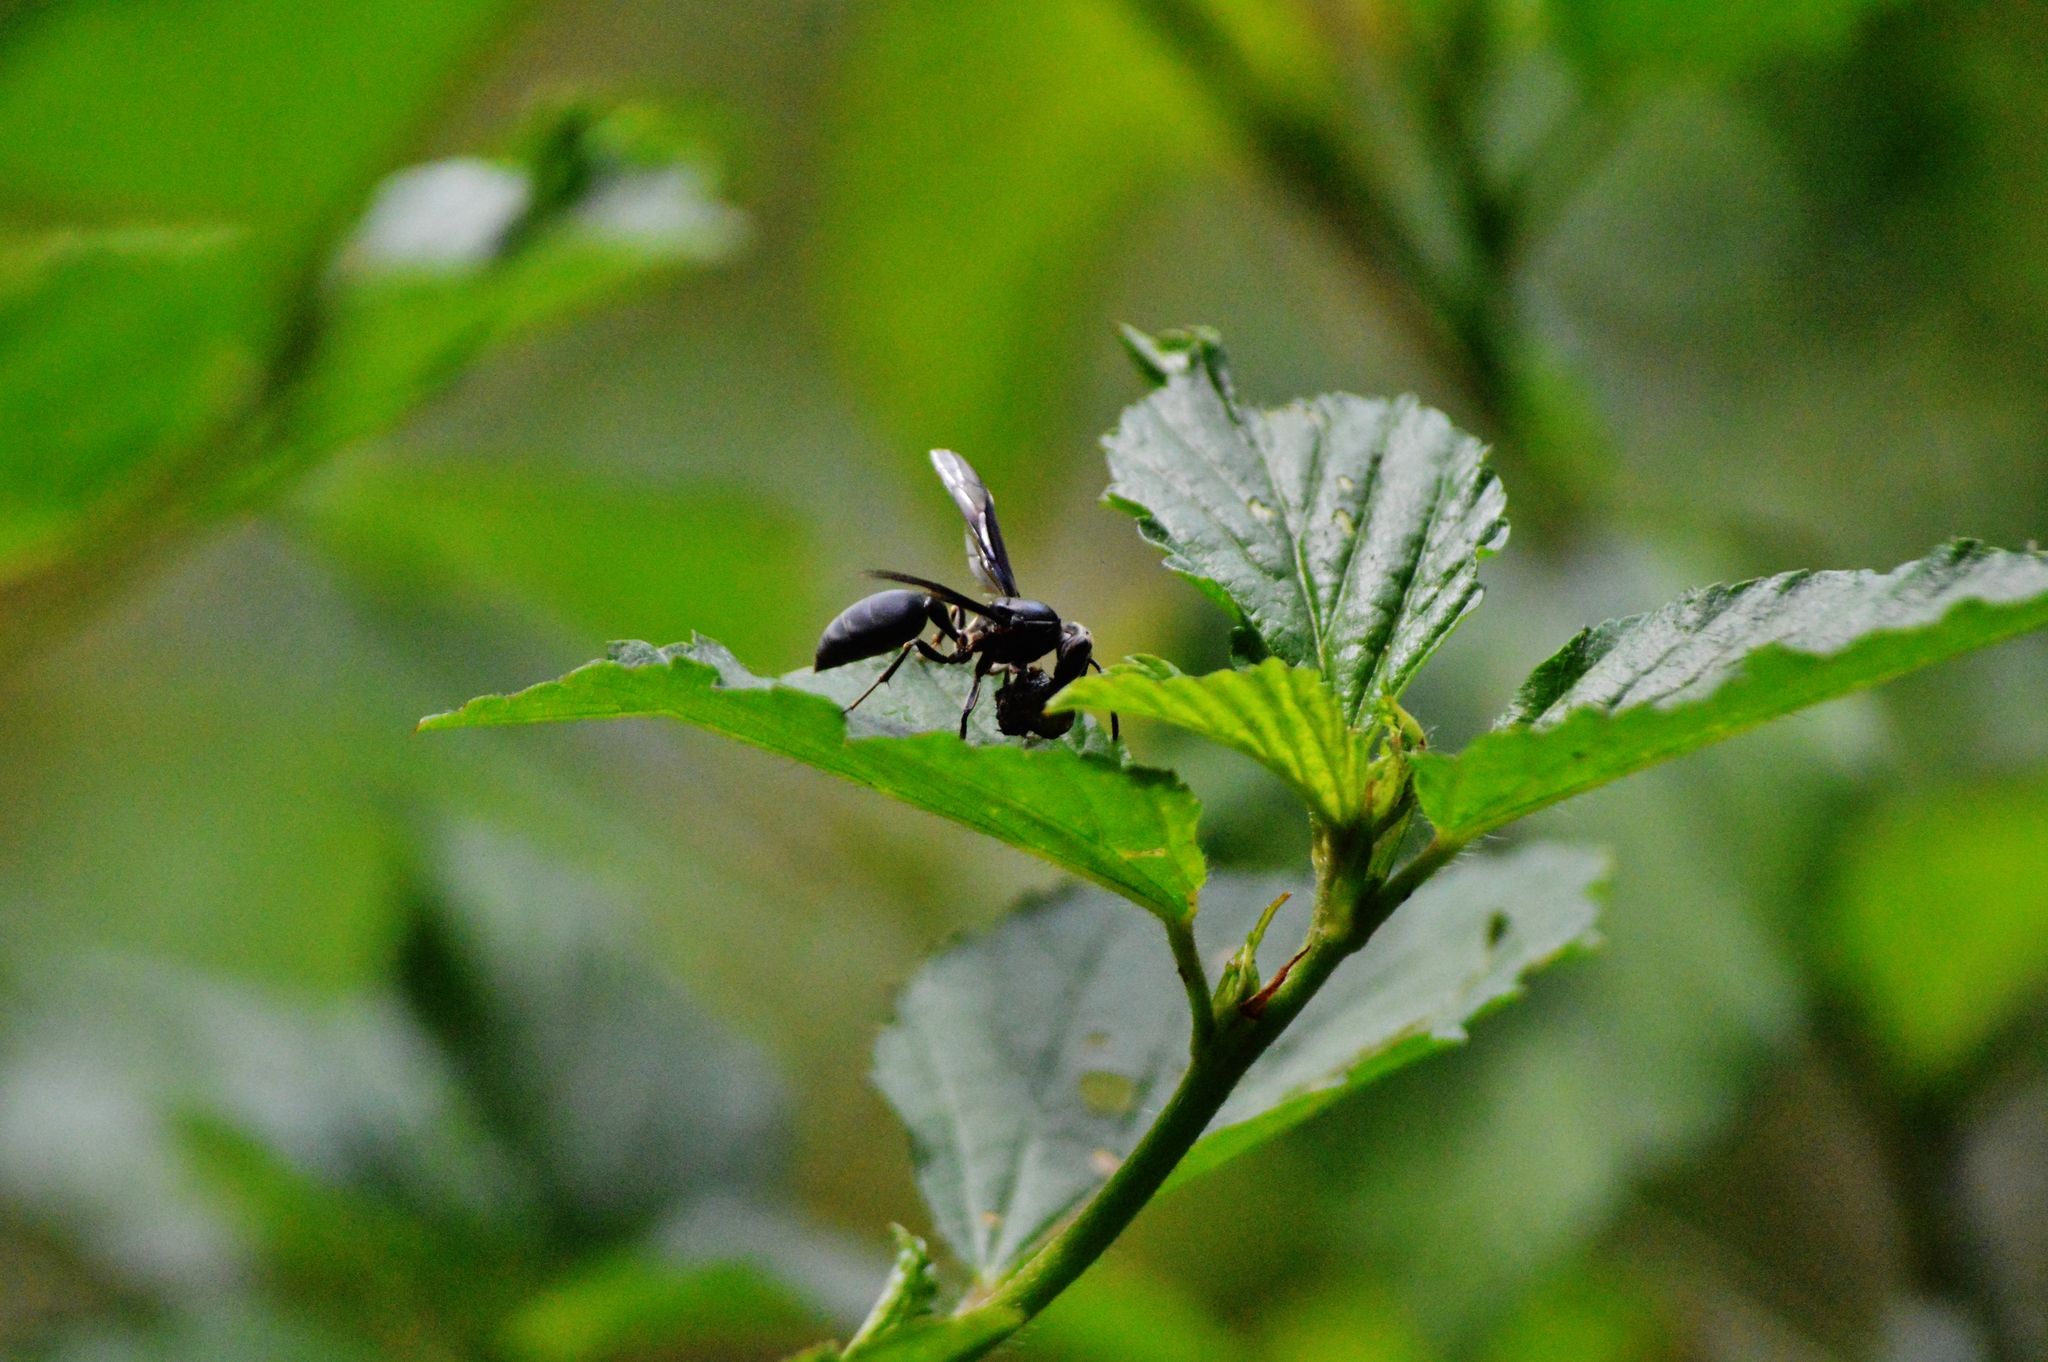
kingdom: Animalia
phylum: Arthropoda
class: Insecta
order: Hymenoptera
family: Eumenidae
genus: Polybia
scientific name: Polybia ignobilis
